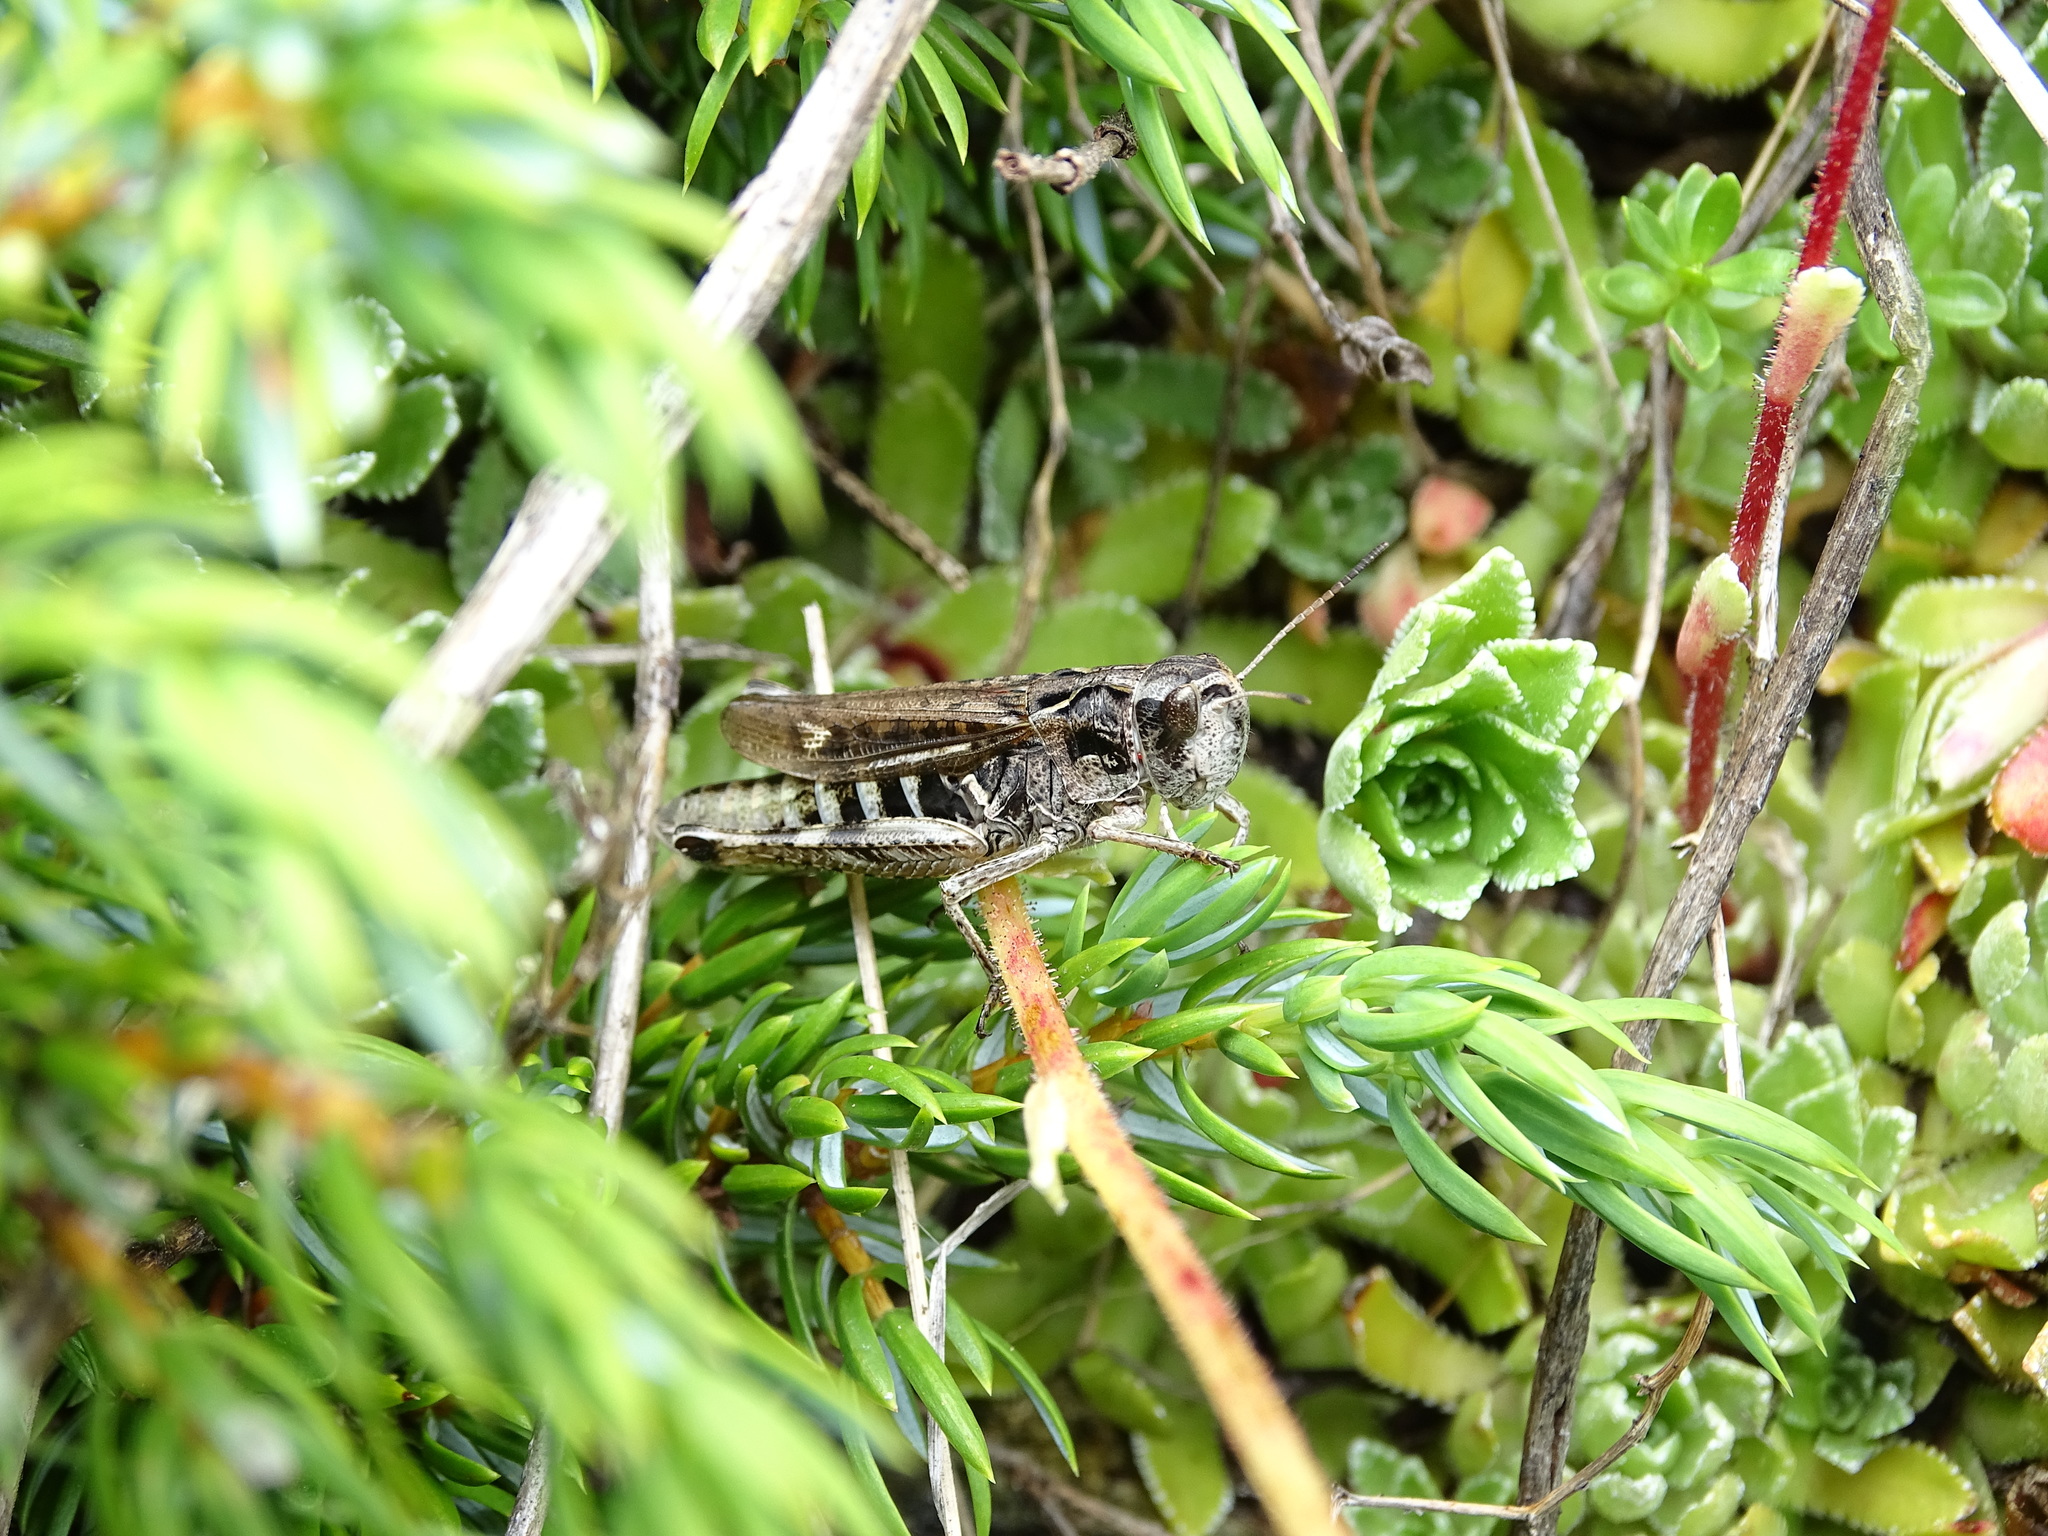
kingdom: Animalia
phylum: Arthropoda
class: Insecta
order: Orthoptera
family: Acrididae
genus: Gomphocerus
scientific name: Gomphocerus sibiricus
